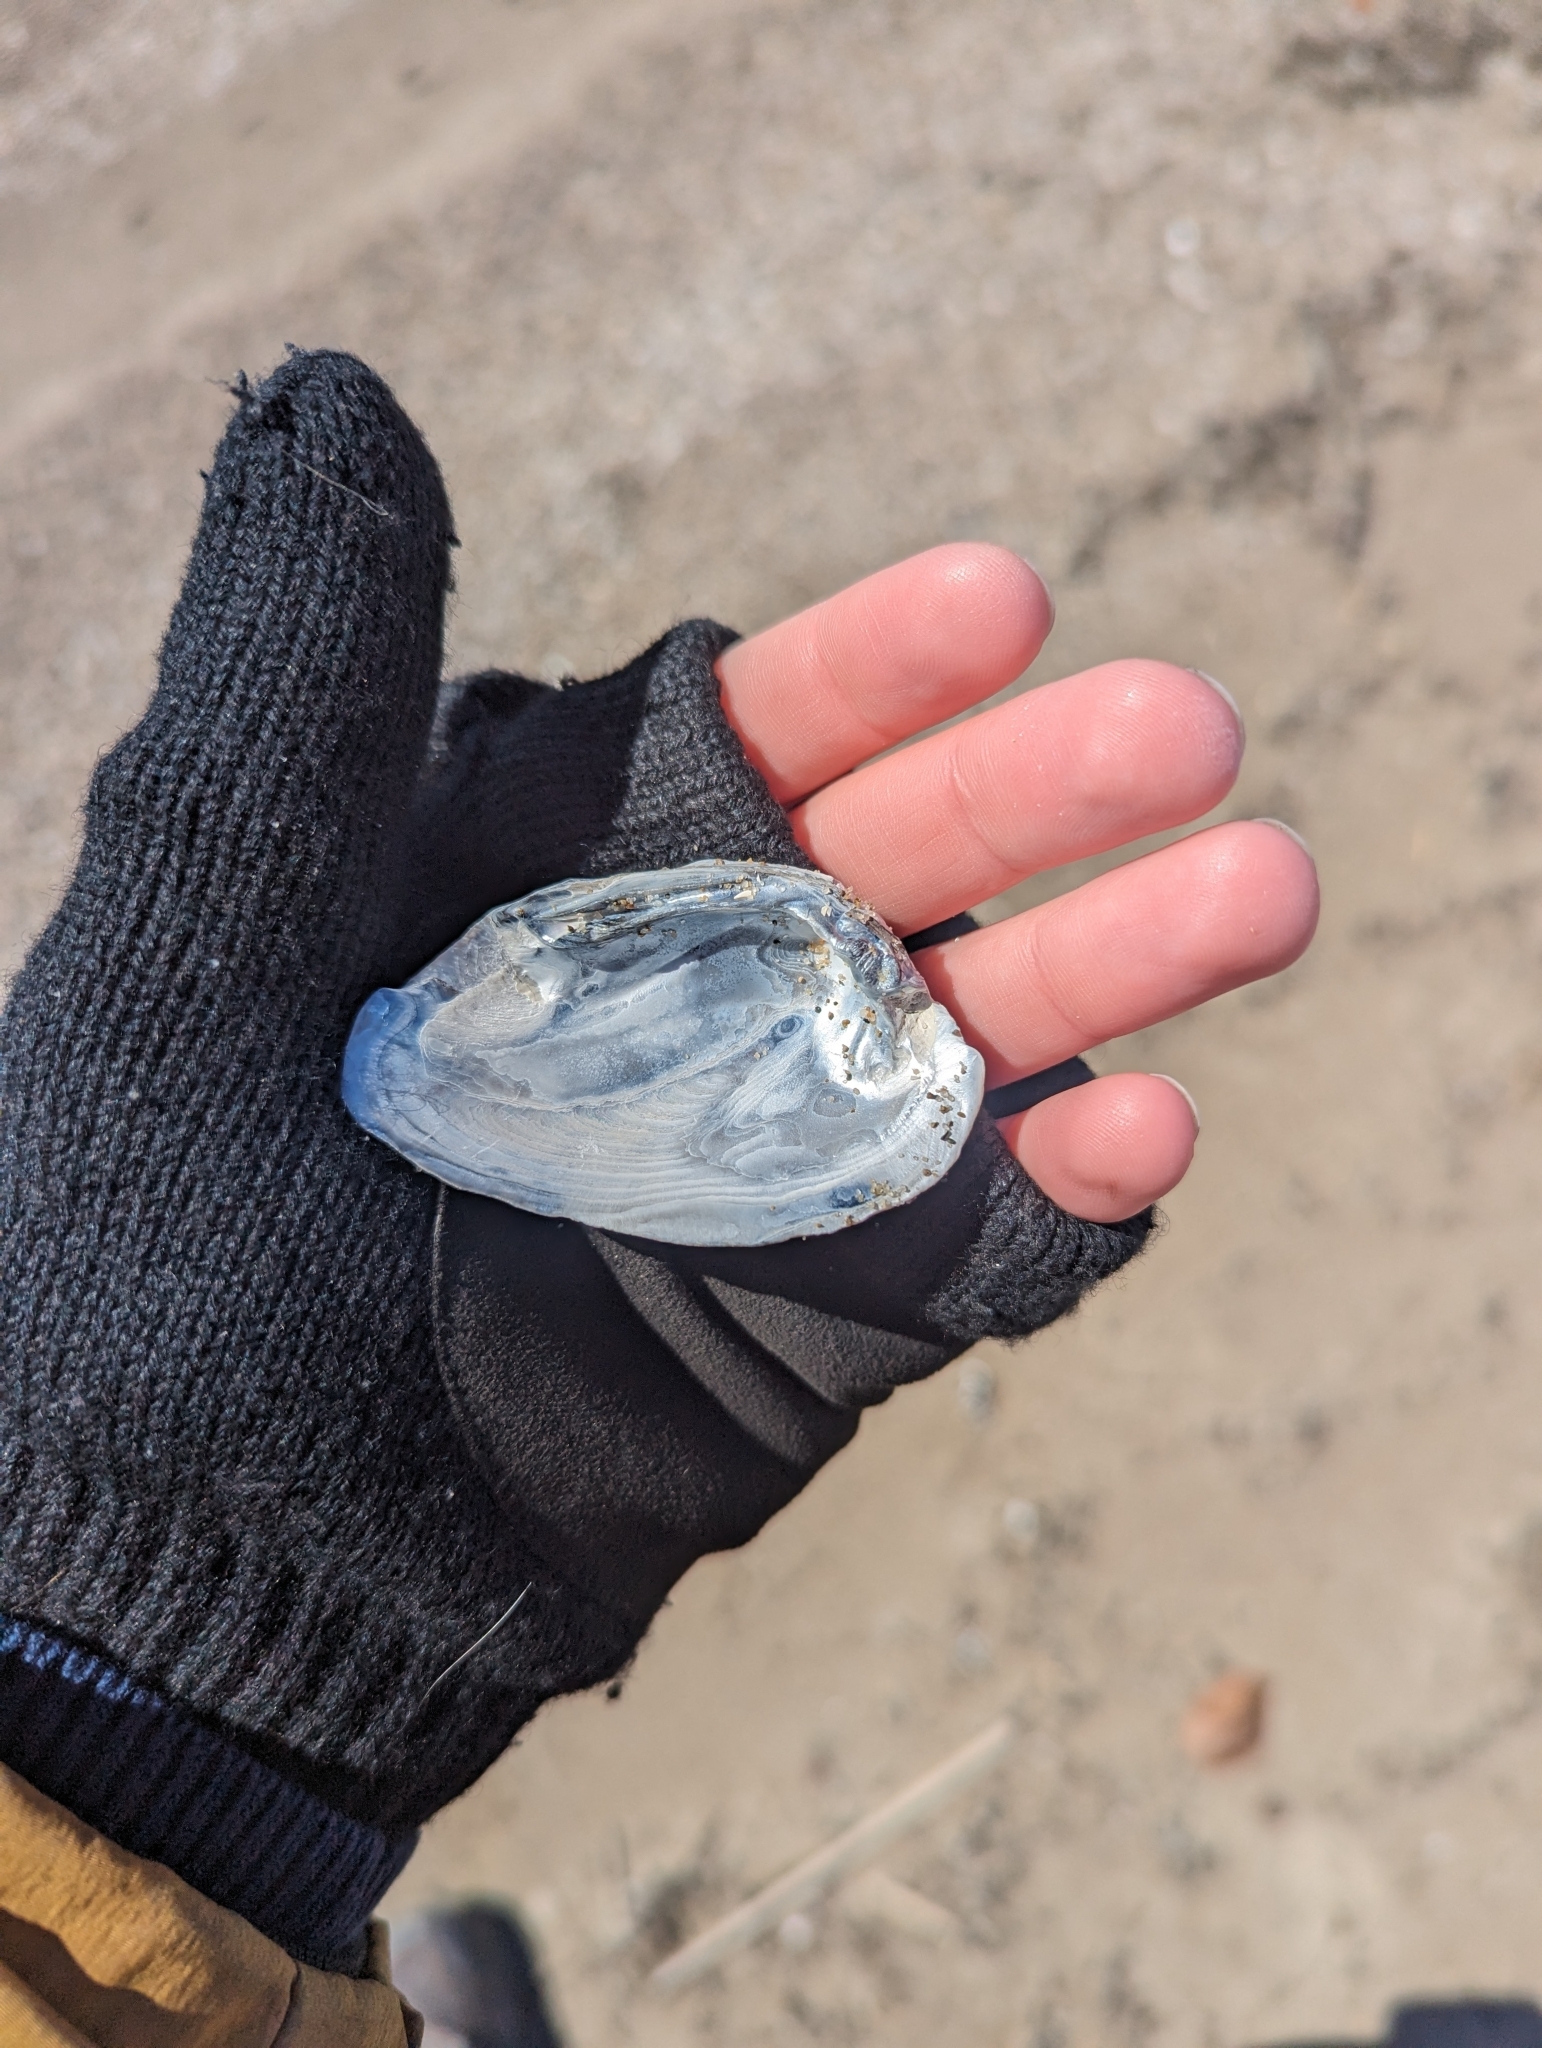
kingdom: Animalia
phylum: Mollusca
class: Bivalvia
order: Unionida
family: Unionidae
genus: Ptychobranchus
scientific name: Ptychobranchus fasciolaris
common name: Kidneyshell
